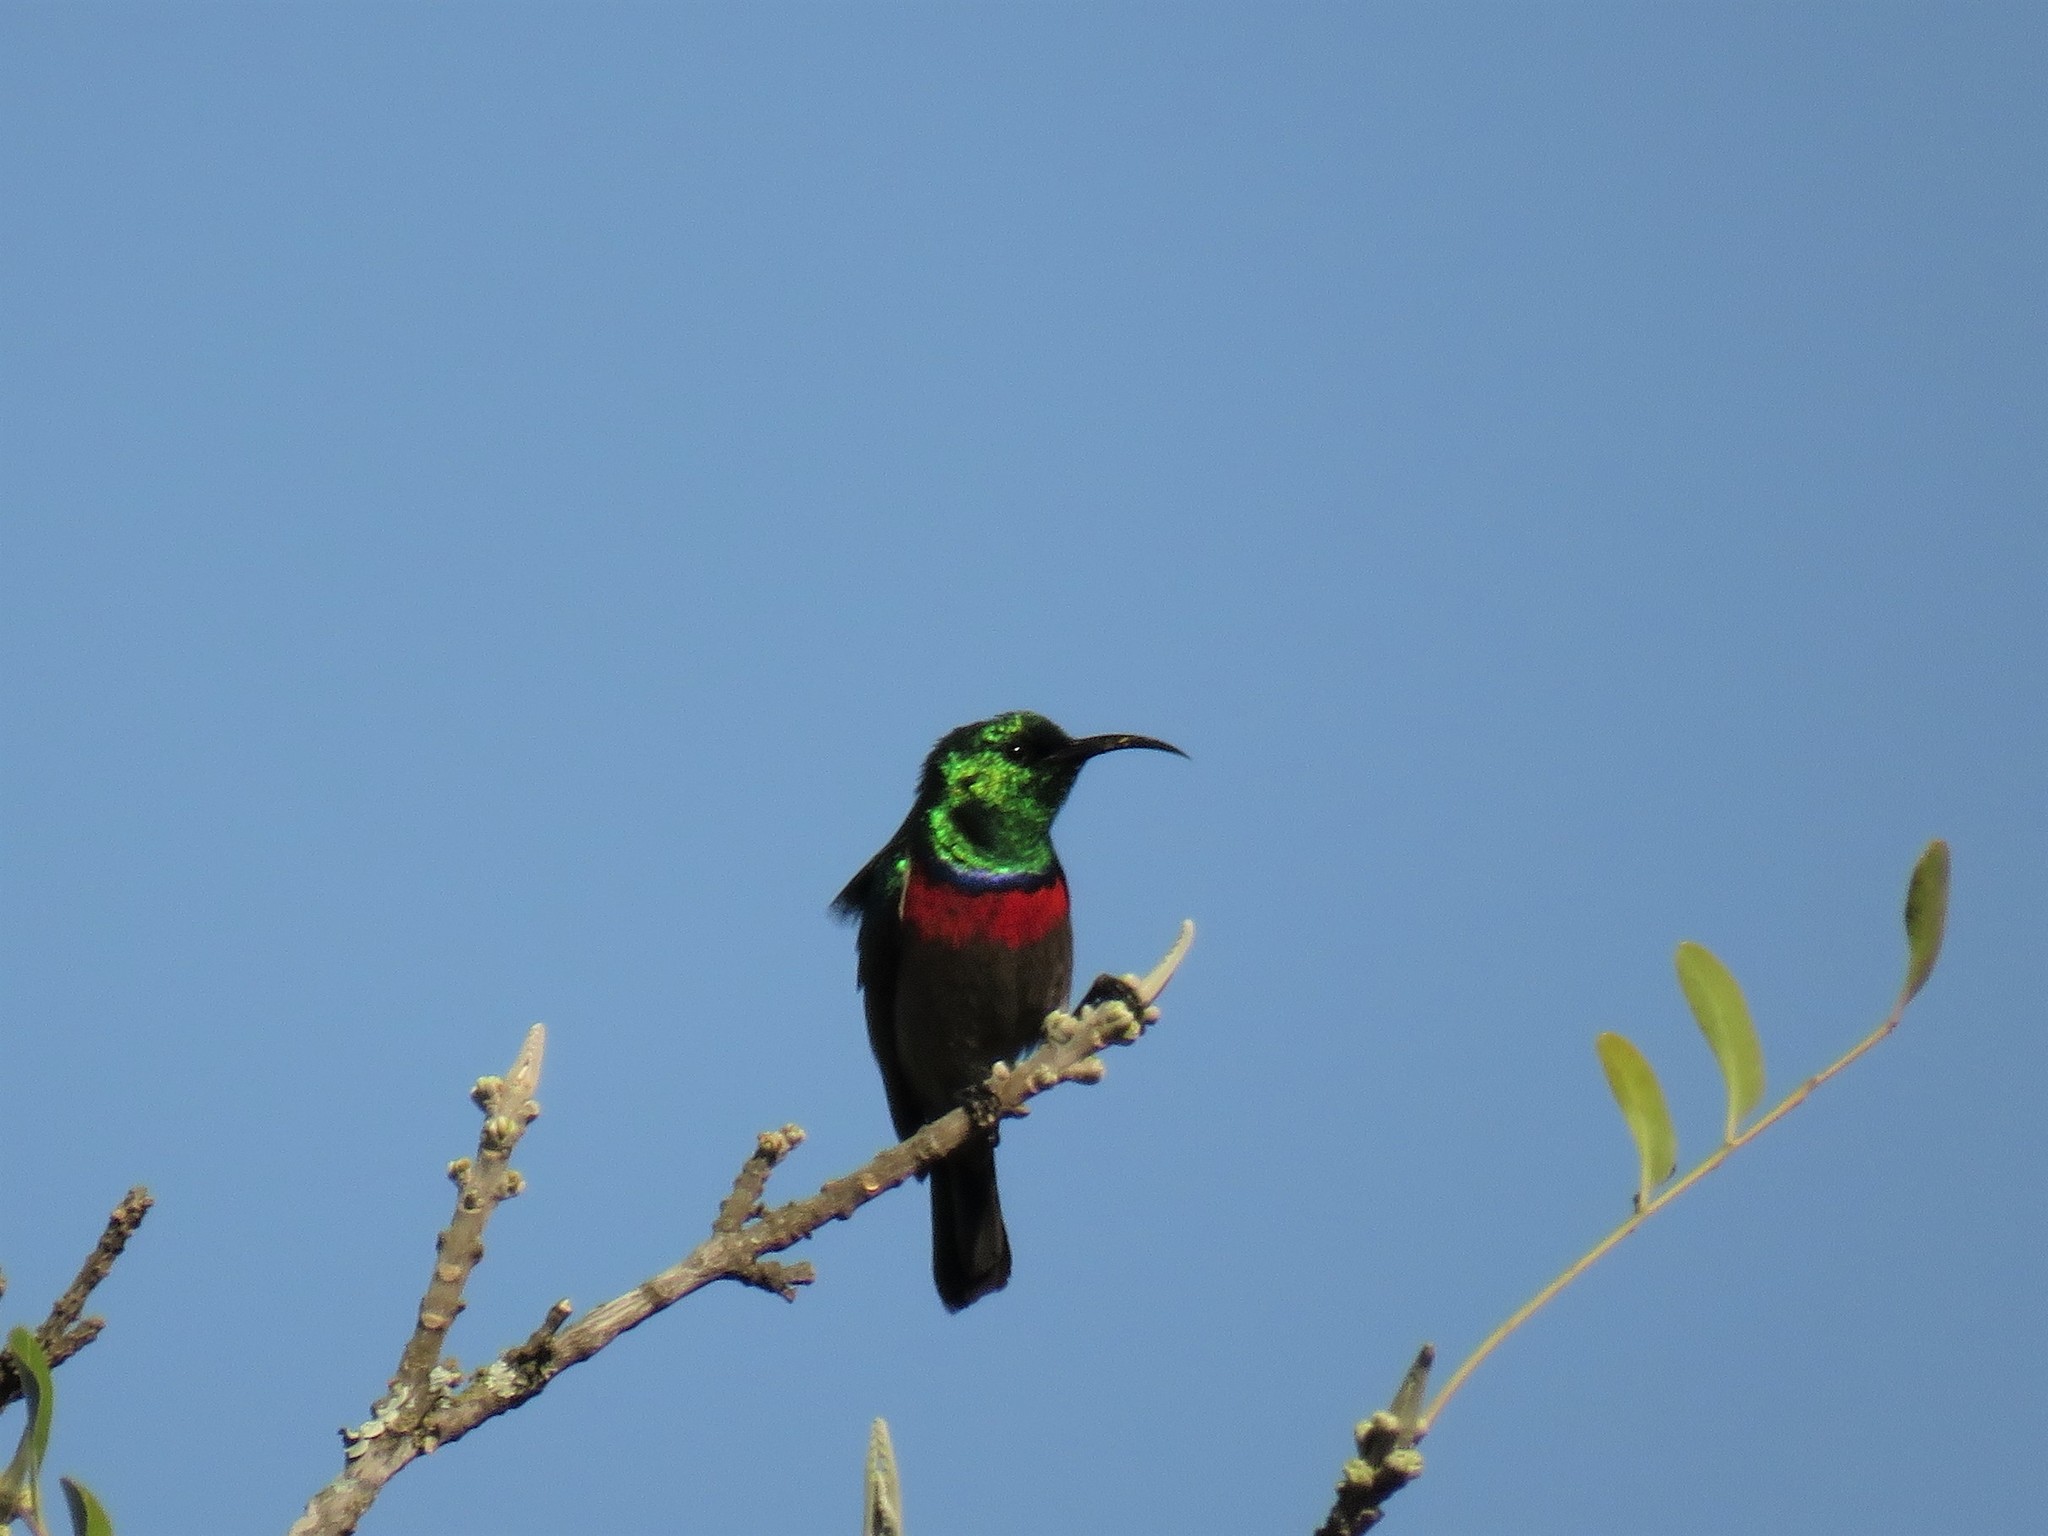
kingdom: Animalia
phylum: Chordata
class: Aves
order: Passeriformes
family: Nectariniidae
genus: Cinnyris
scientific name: Cinnyris chalybeus
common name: Southern double-collared sunbird
